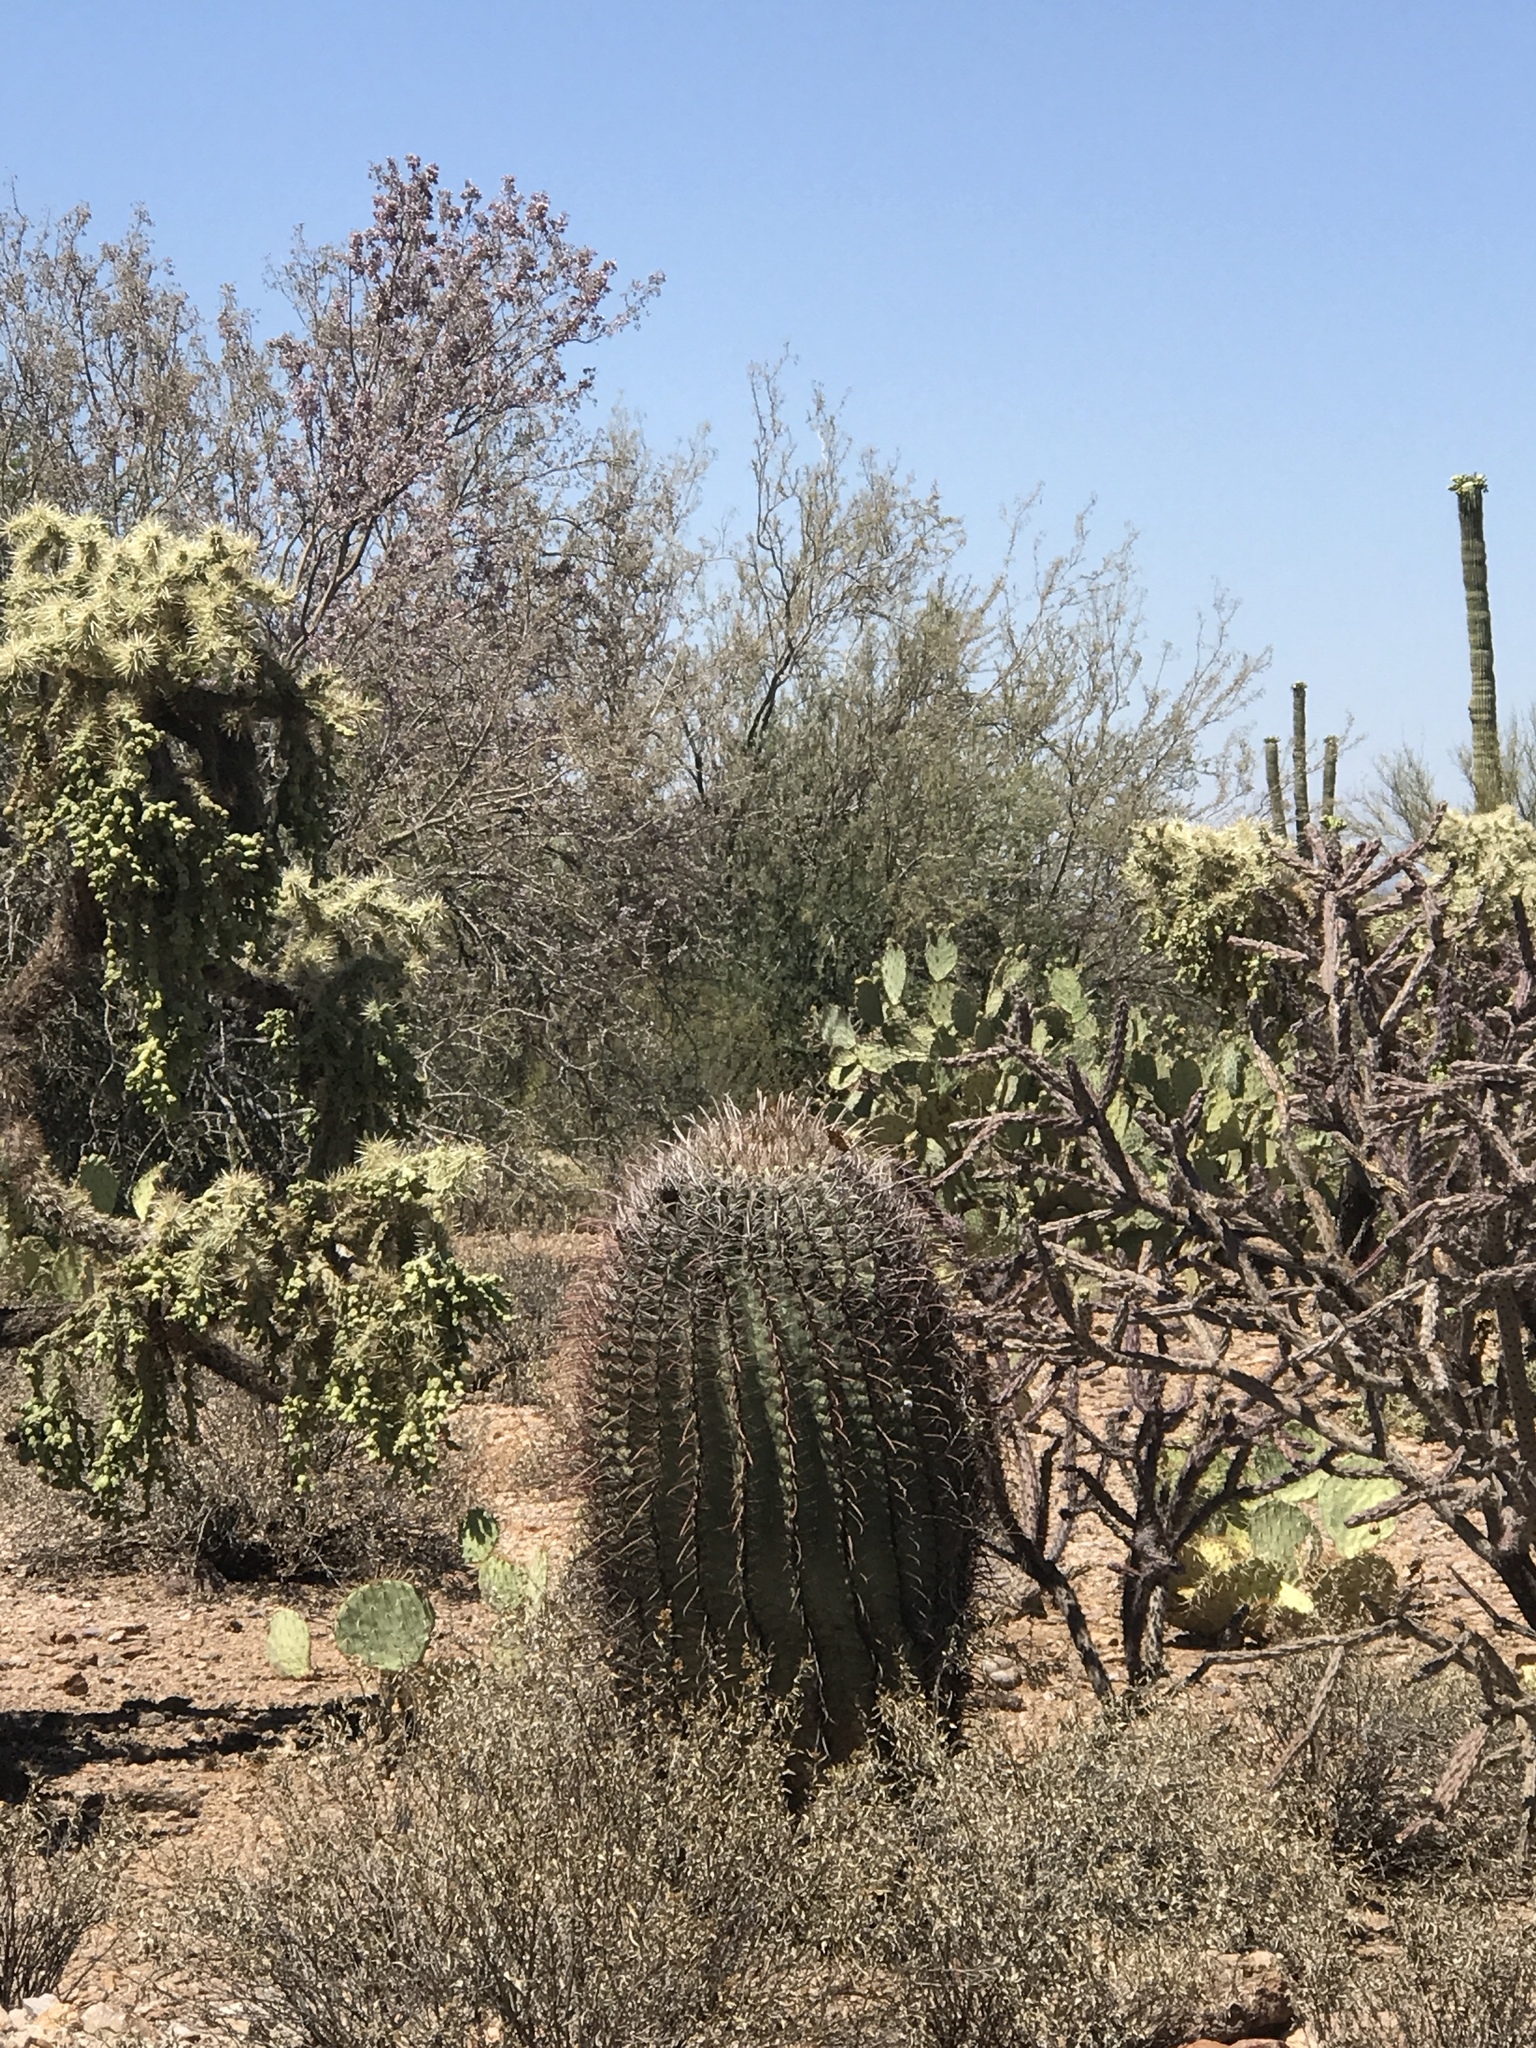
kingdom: Plantae
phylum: Tracheophyta
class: Magnoliopsida
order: Caryophyllales
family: Cactaceae
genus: Ferocactus
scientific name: Ferocactus wislizeni
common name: Candy barrel cactus
